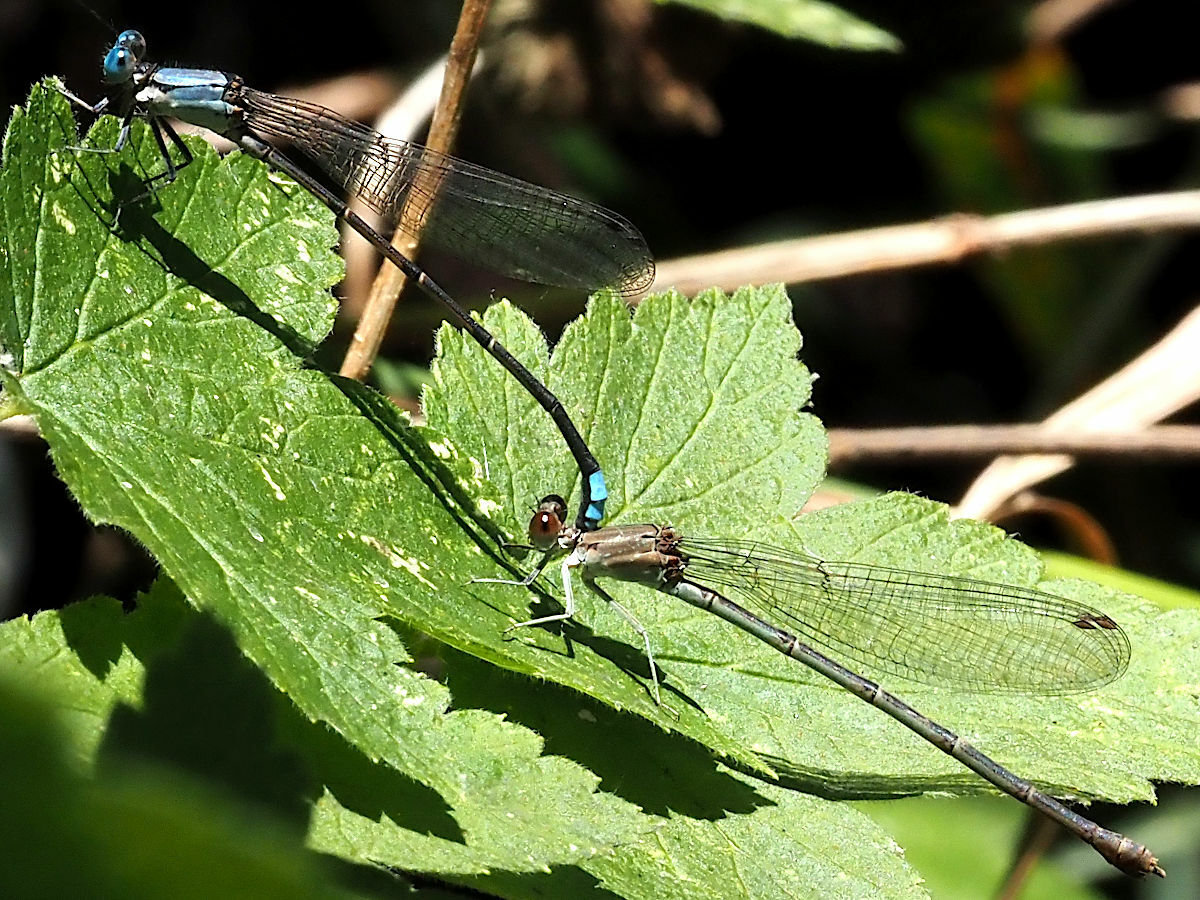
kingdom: Animalia
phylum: Arthropoda
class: Insecta
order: Odonata
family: Coenagrionidae
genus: Argia
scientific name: Argia apicalis
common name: Blue-fronted dancer
